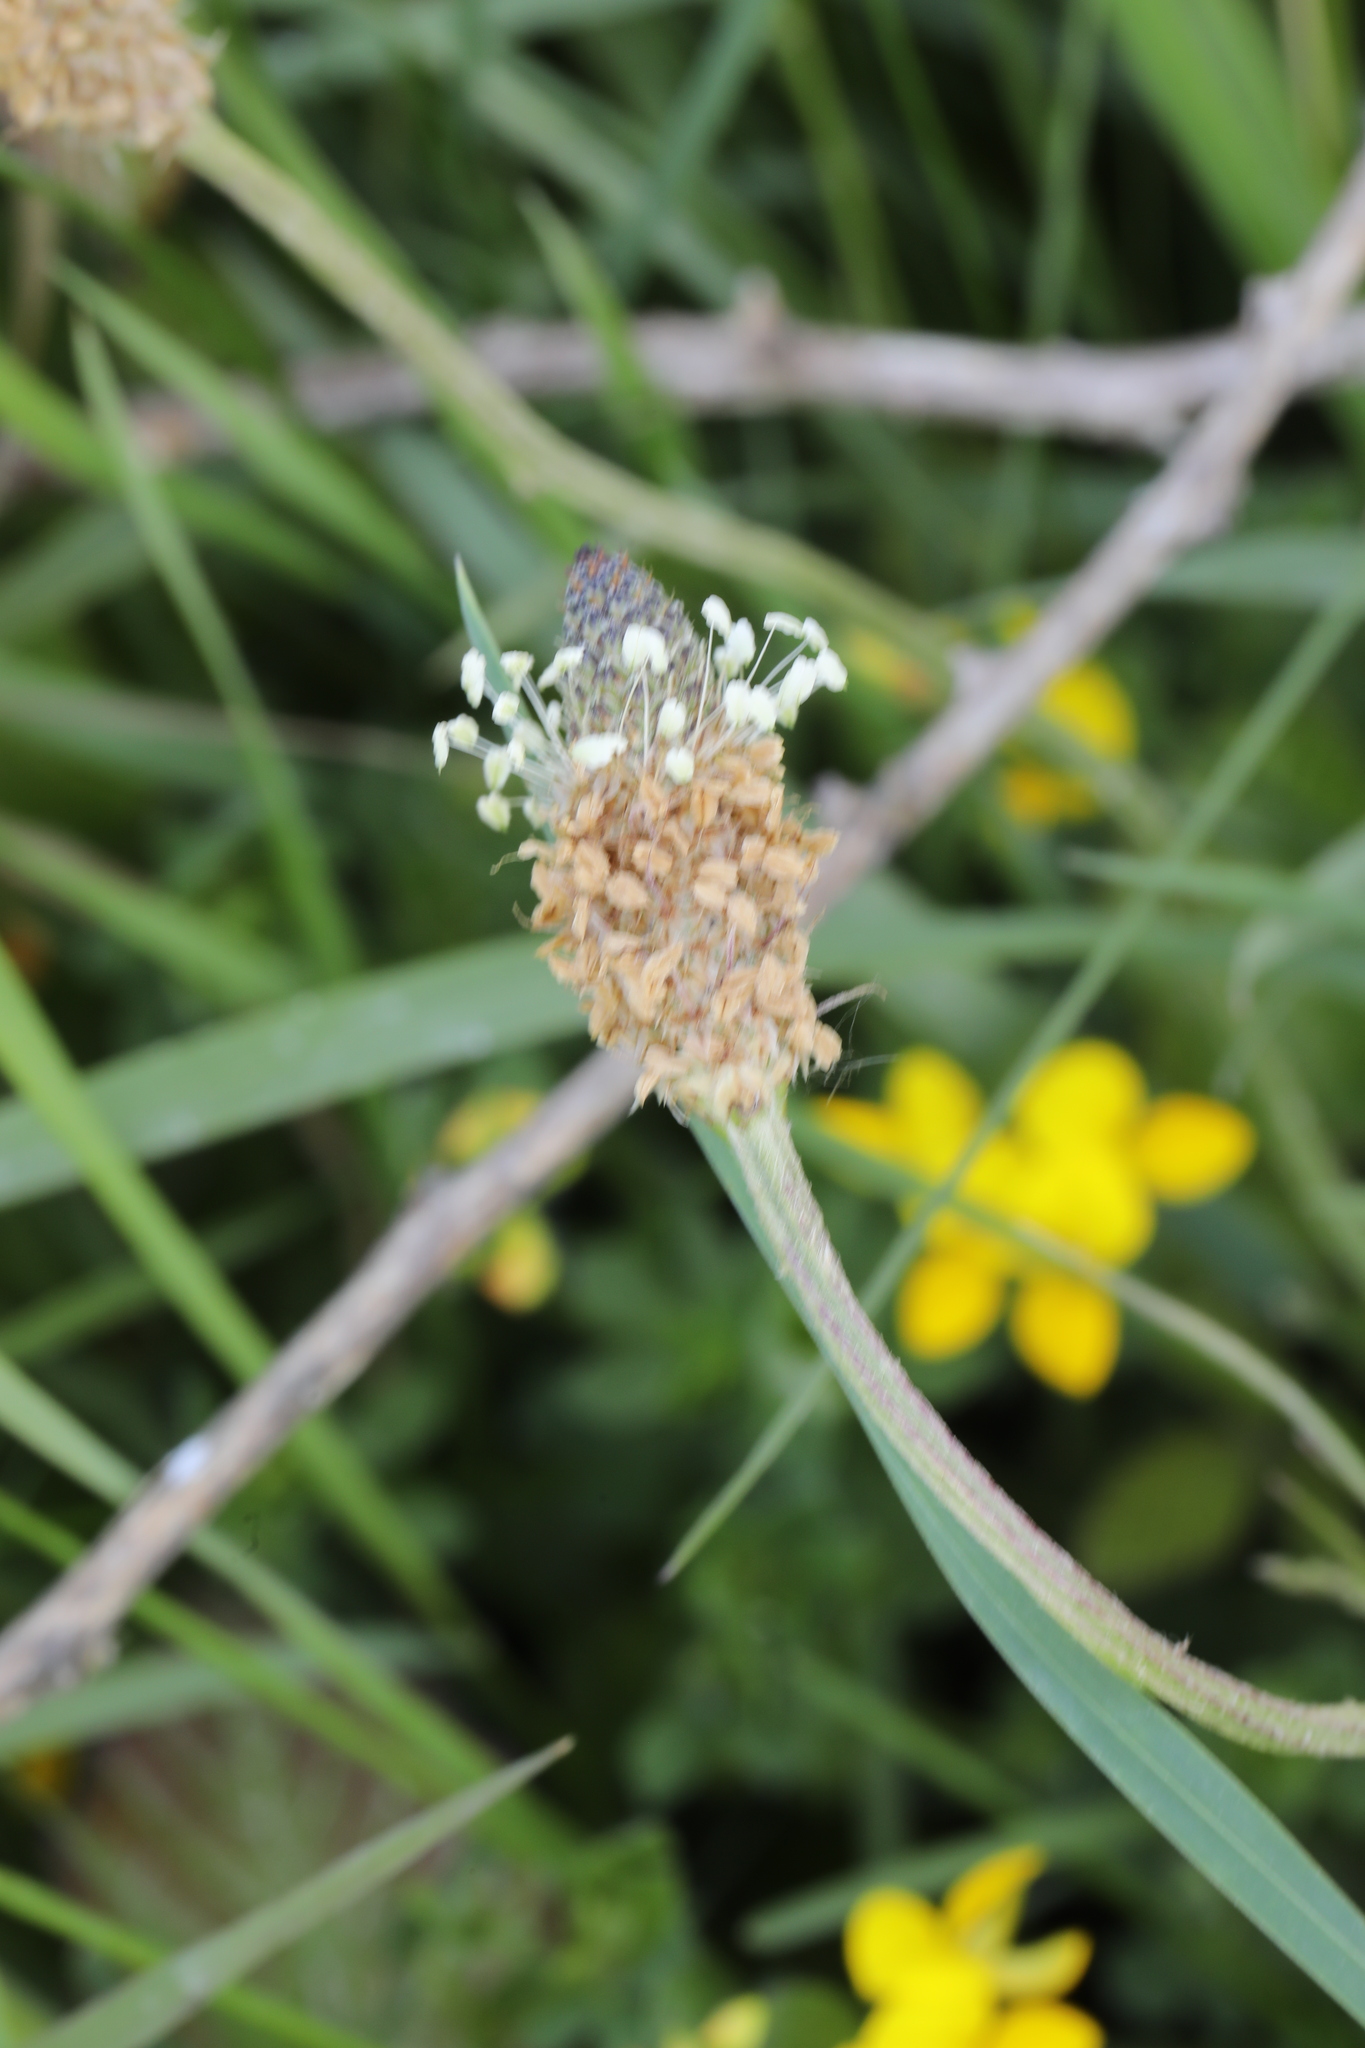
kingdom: Plantae
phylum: Tracheophyta
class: Magnoliopsida
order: Lamiales
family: Plantaginaceae
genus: Plantago
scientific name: Plantago lanceolata
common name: Ribwort plantain
